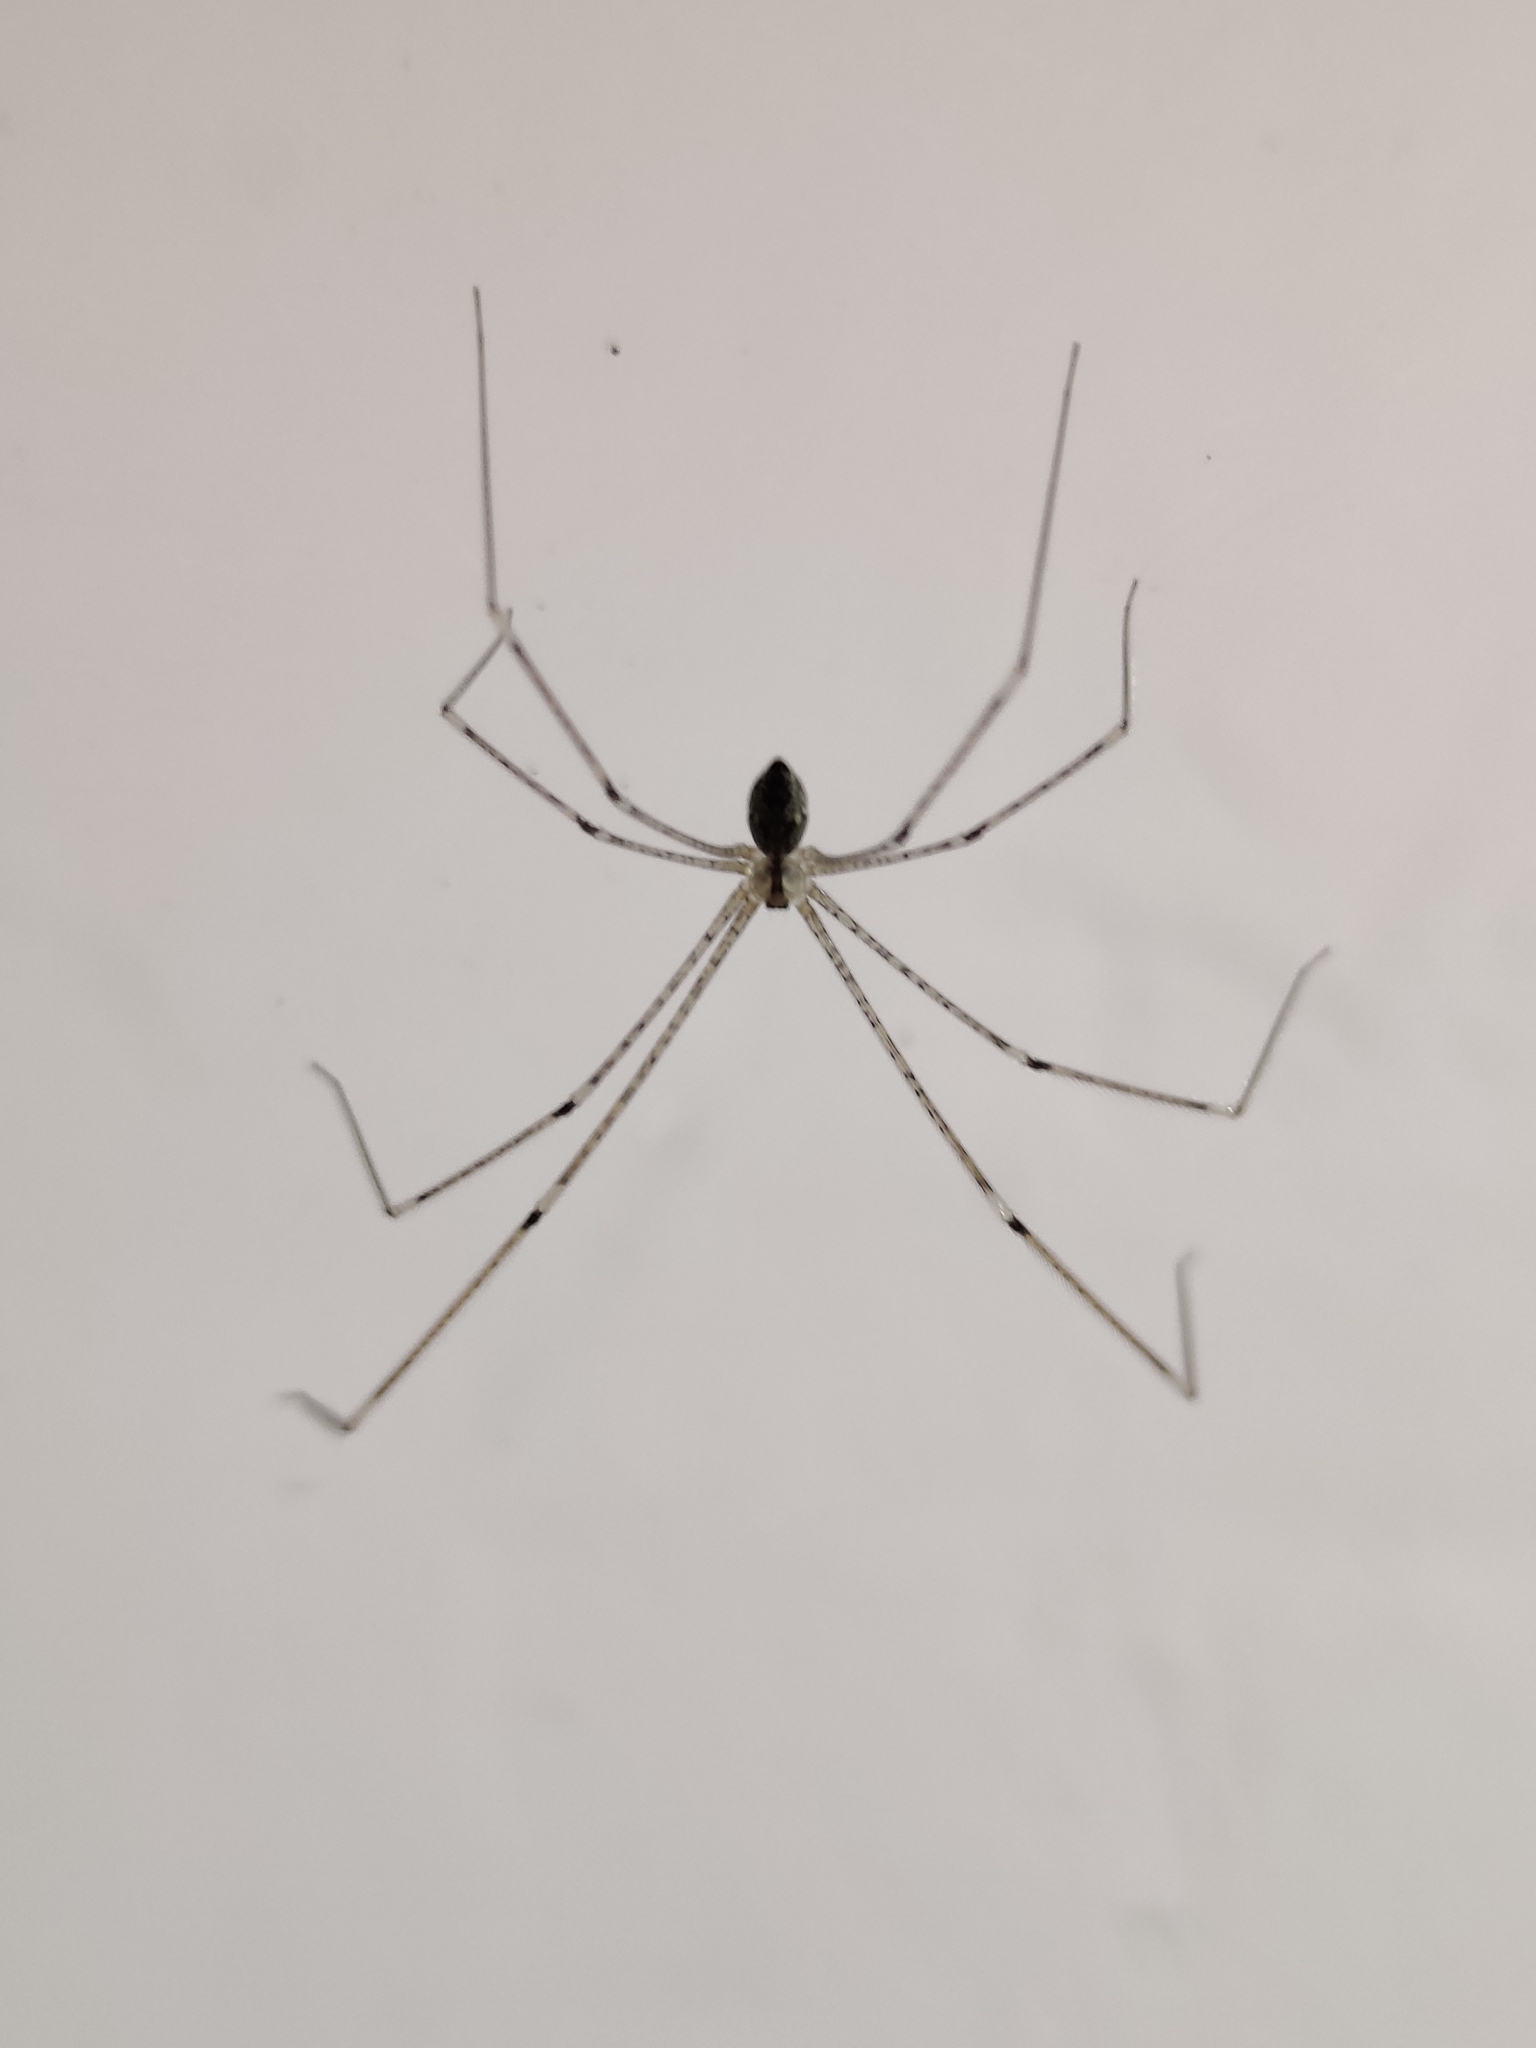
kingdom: Animalia
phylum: Arthropoda
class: Arachnida
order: Araneae
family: Pholcidae
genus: Crossopriza
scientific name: Crossopriza lyoni
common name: Cellar spiders
